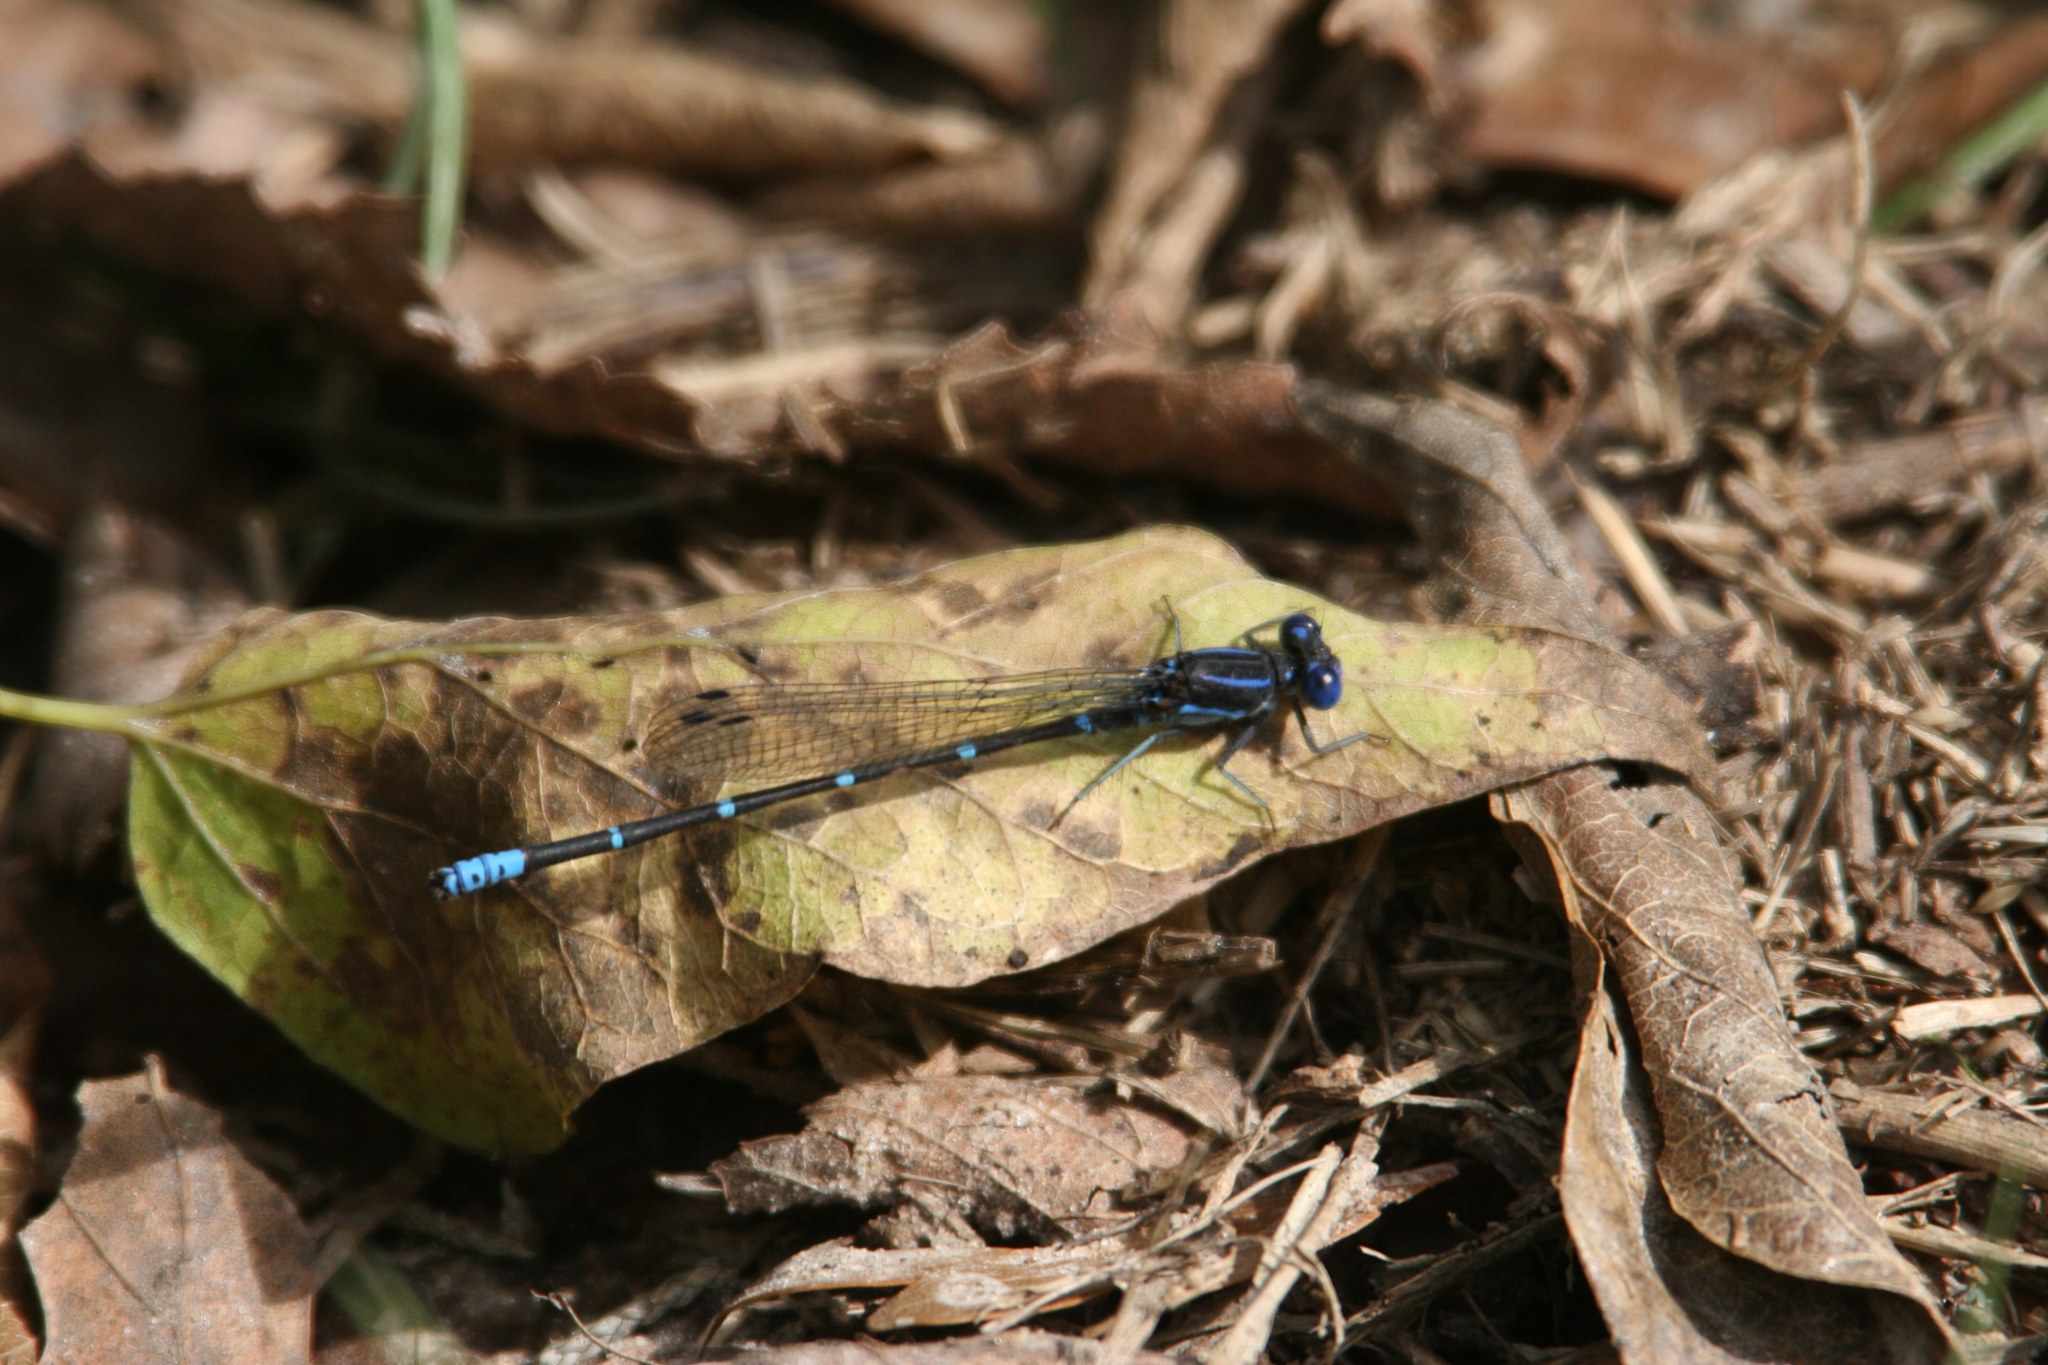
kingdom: Animalia
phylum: Arthropoda
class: Insecta
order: Odonata
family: Coenagrionidae
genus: Argia
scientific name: Argia sedula
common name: Blue-ringed dancer
